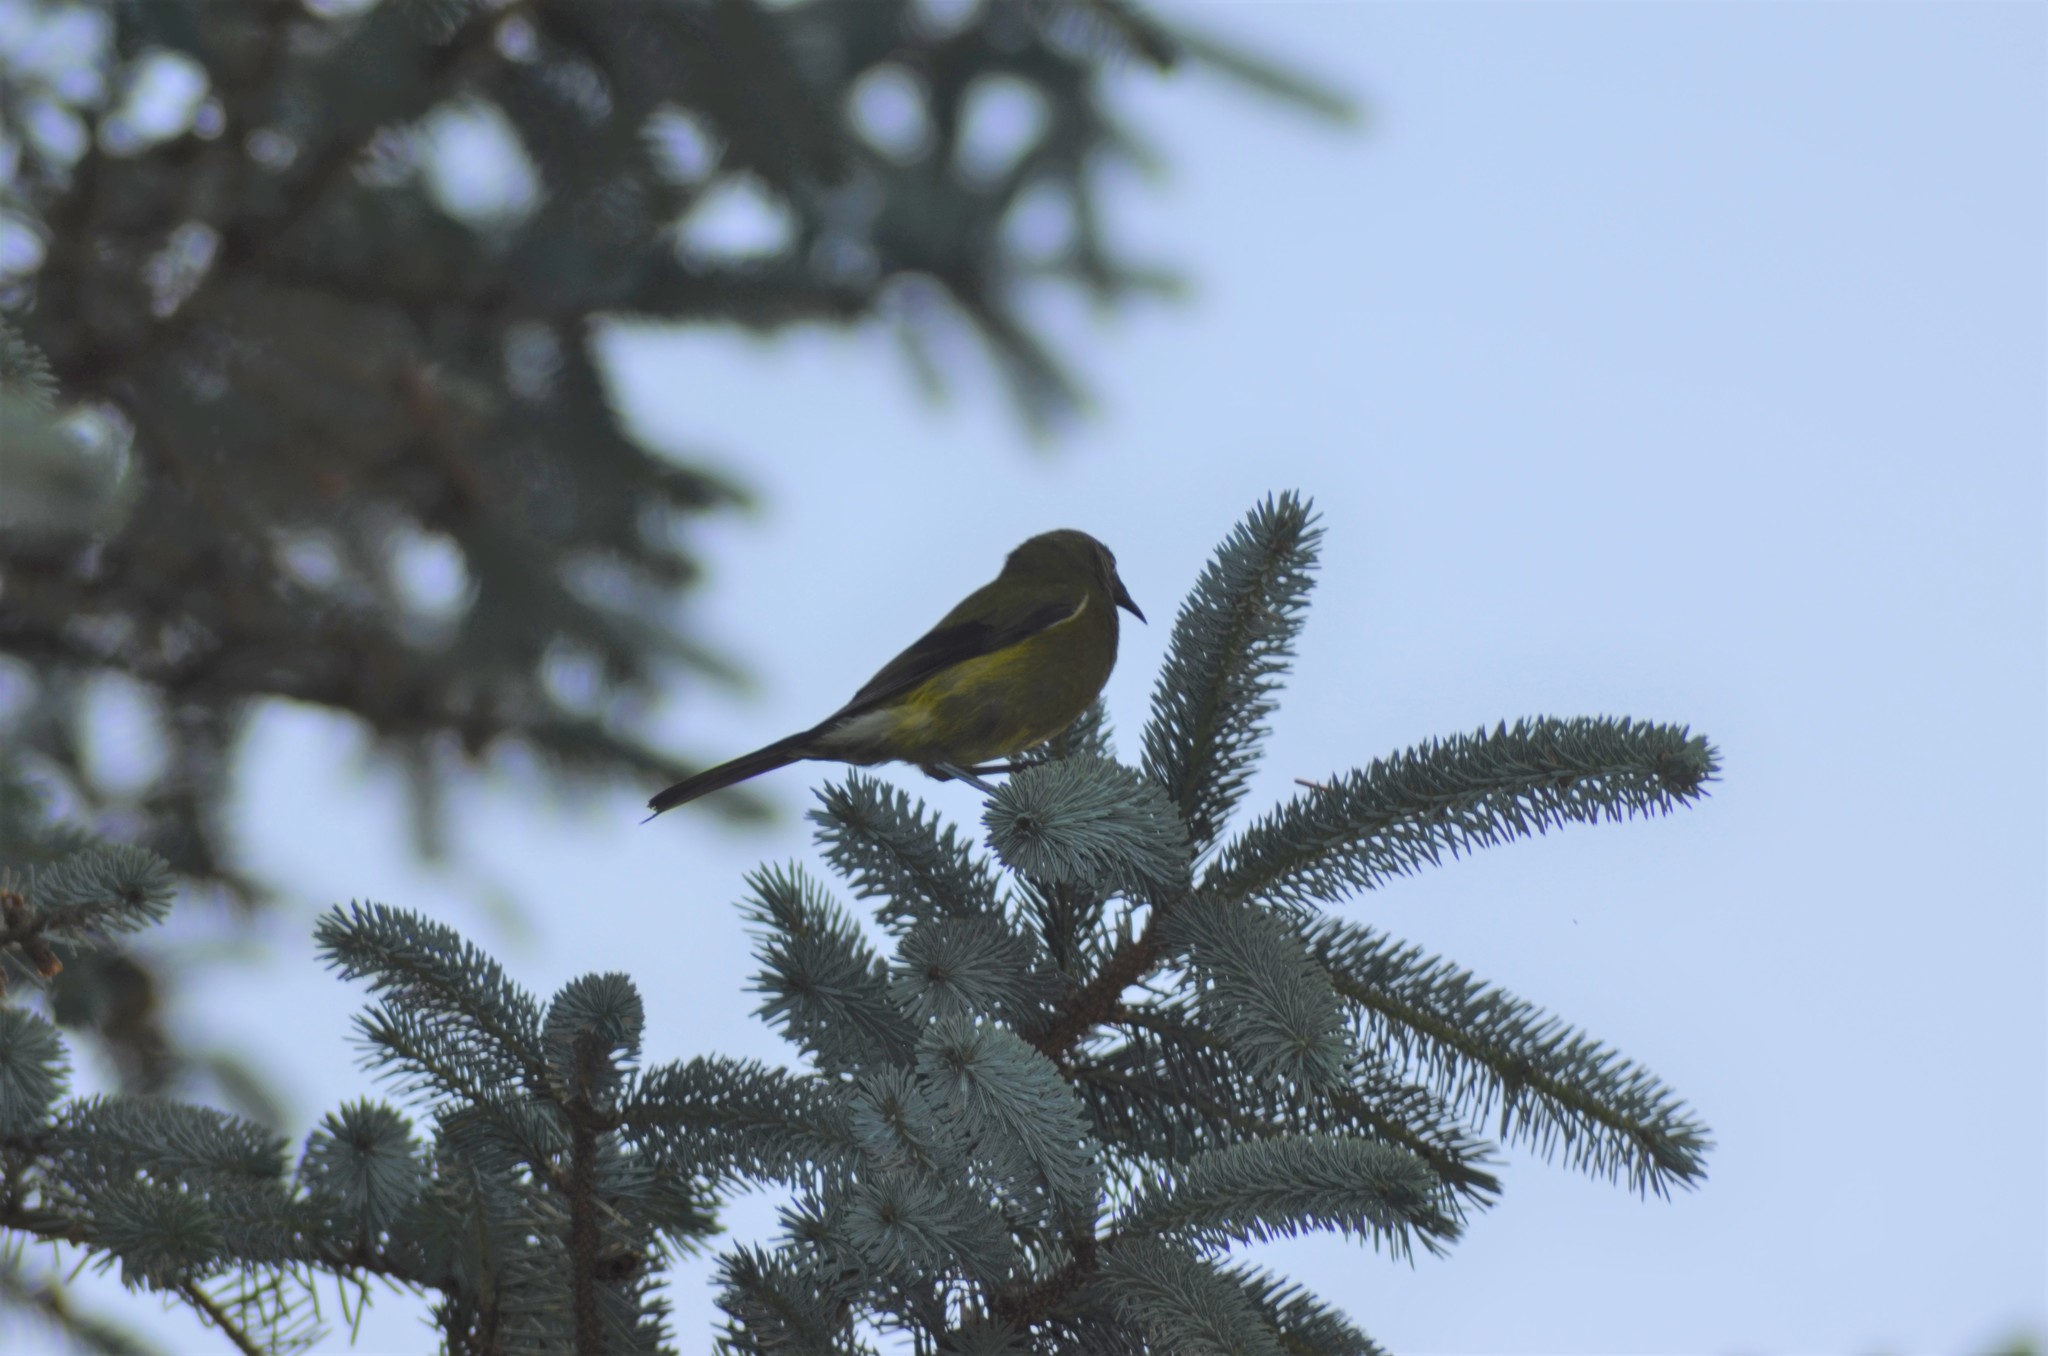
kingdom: Animalia
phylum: Chordata
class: Aves
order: Passeriformes
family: Meliphagidae
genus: Anthornis
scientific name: Anthornis melanura
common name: New zealand bellbird
